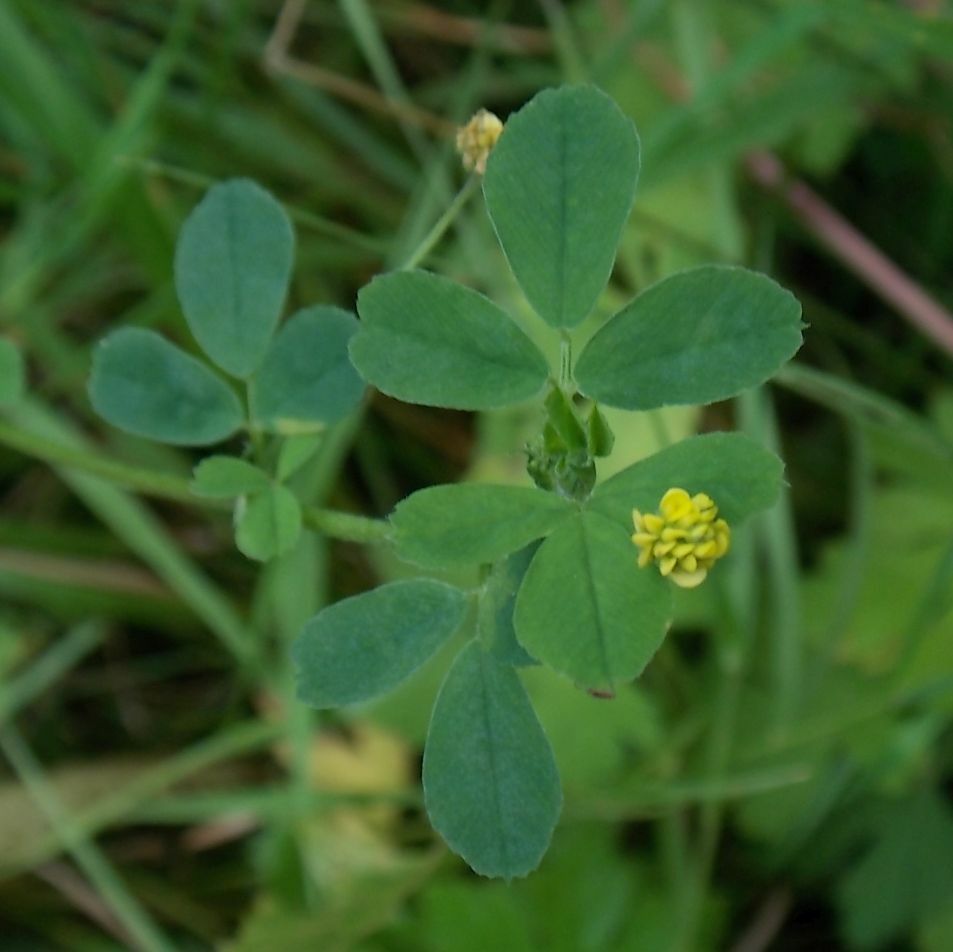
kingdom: Plantae
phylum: Tracheophyta
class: Magnoliopsida
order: Fabales
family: Fabaceae
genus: Medicago
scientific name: Medicago lupulina
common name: Black medick
